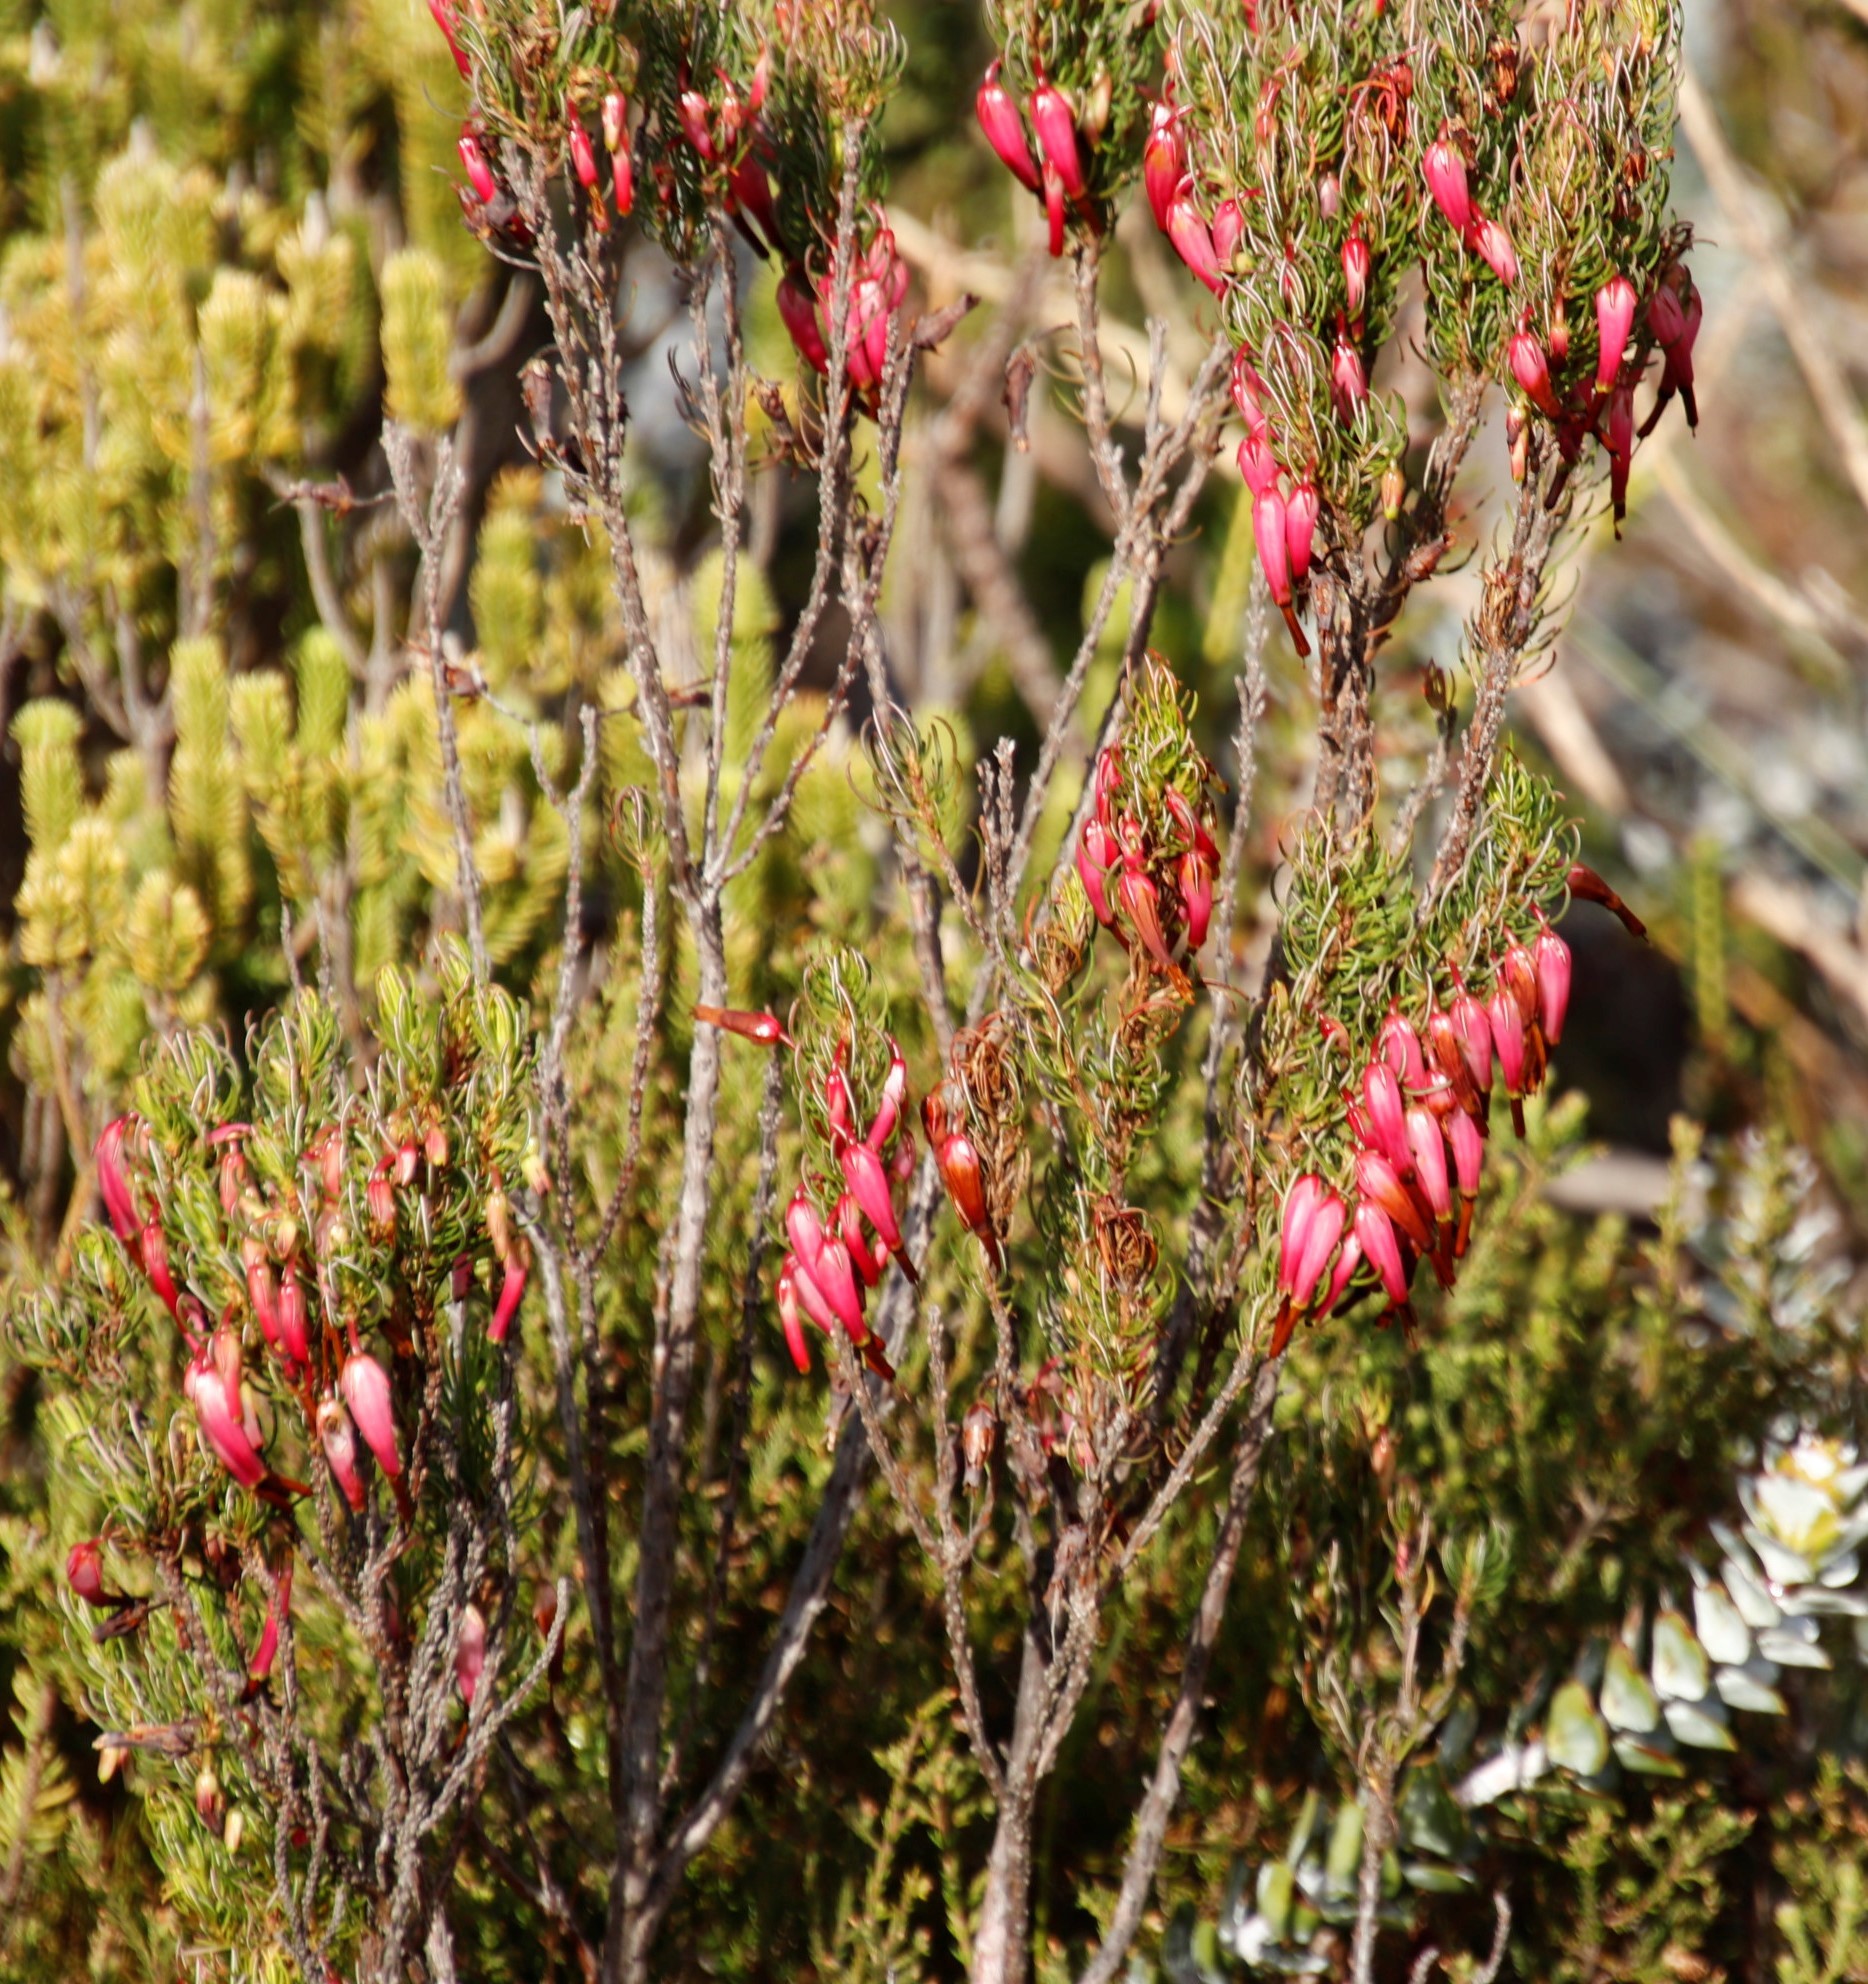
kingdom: Plantae
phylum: Tracheophyta
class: Magnoliopsida
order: Ericales
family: Ericaceae
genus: Erica
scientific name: Erica plukenetii
